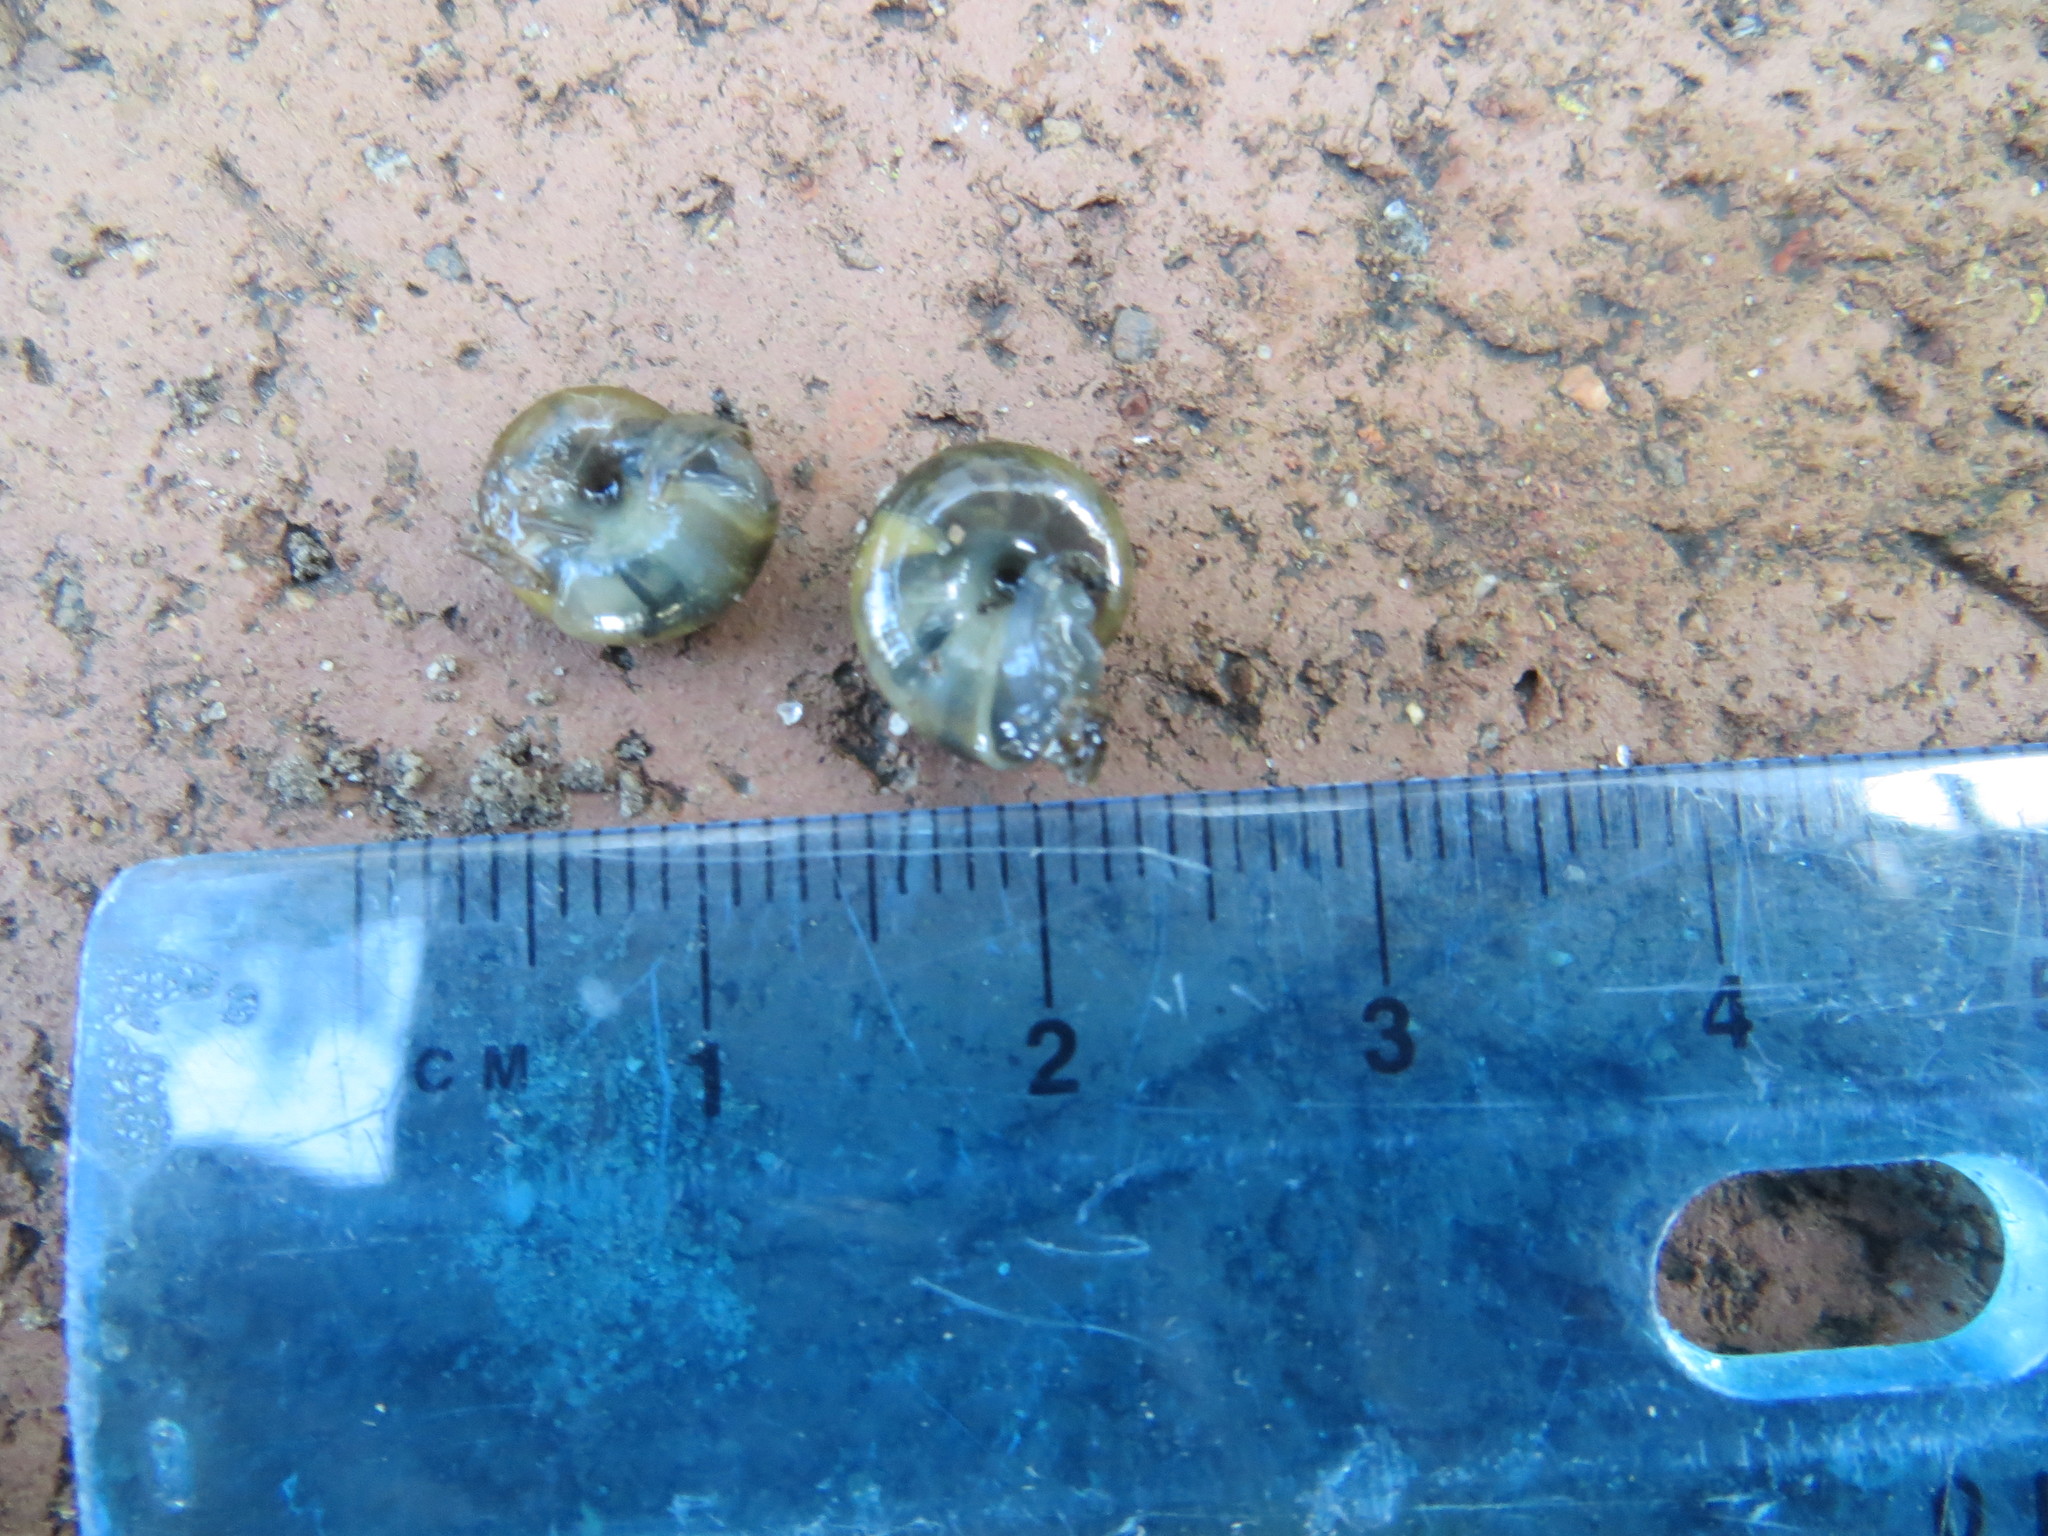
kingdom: Animalia
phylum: Mollusca
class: Gastropoda
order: Stylommatophora
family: Oxychilidae
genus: Oxychilus
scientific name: Oxychilus draparnaudi
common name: Draparnaud's glass snail
